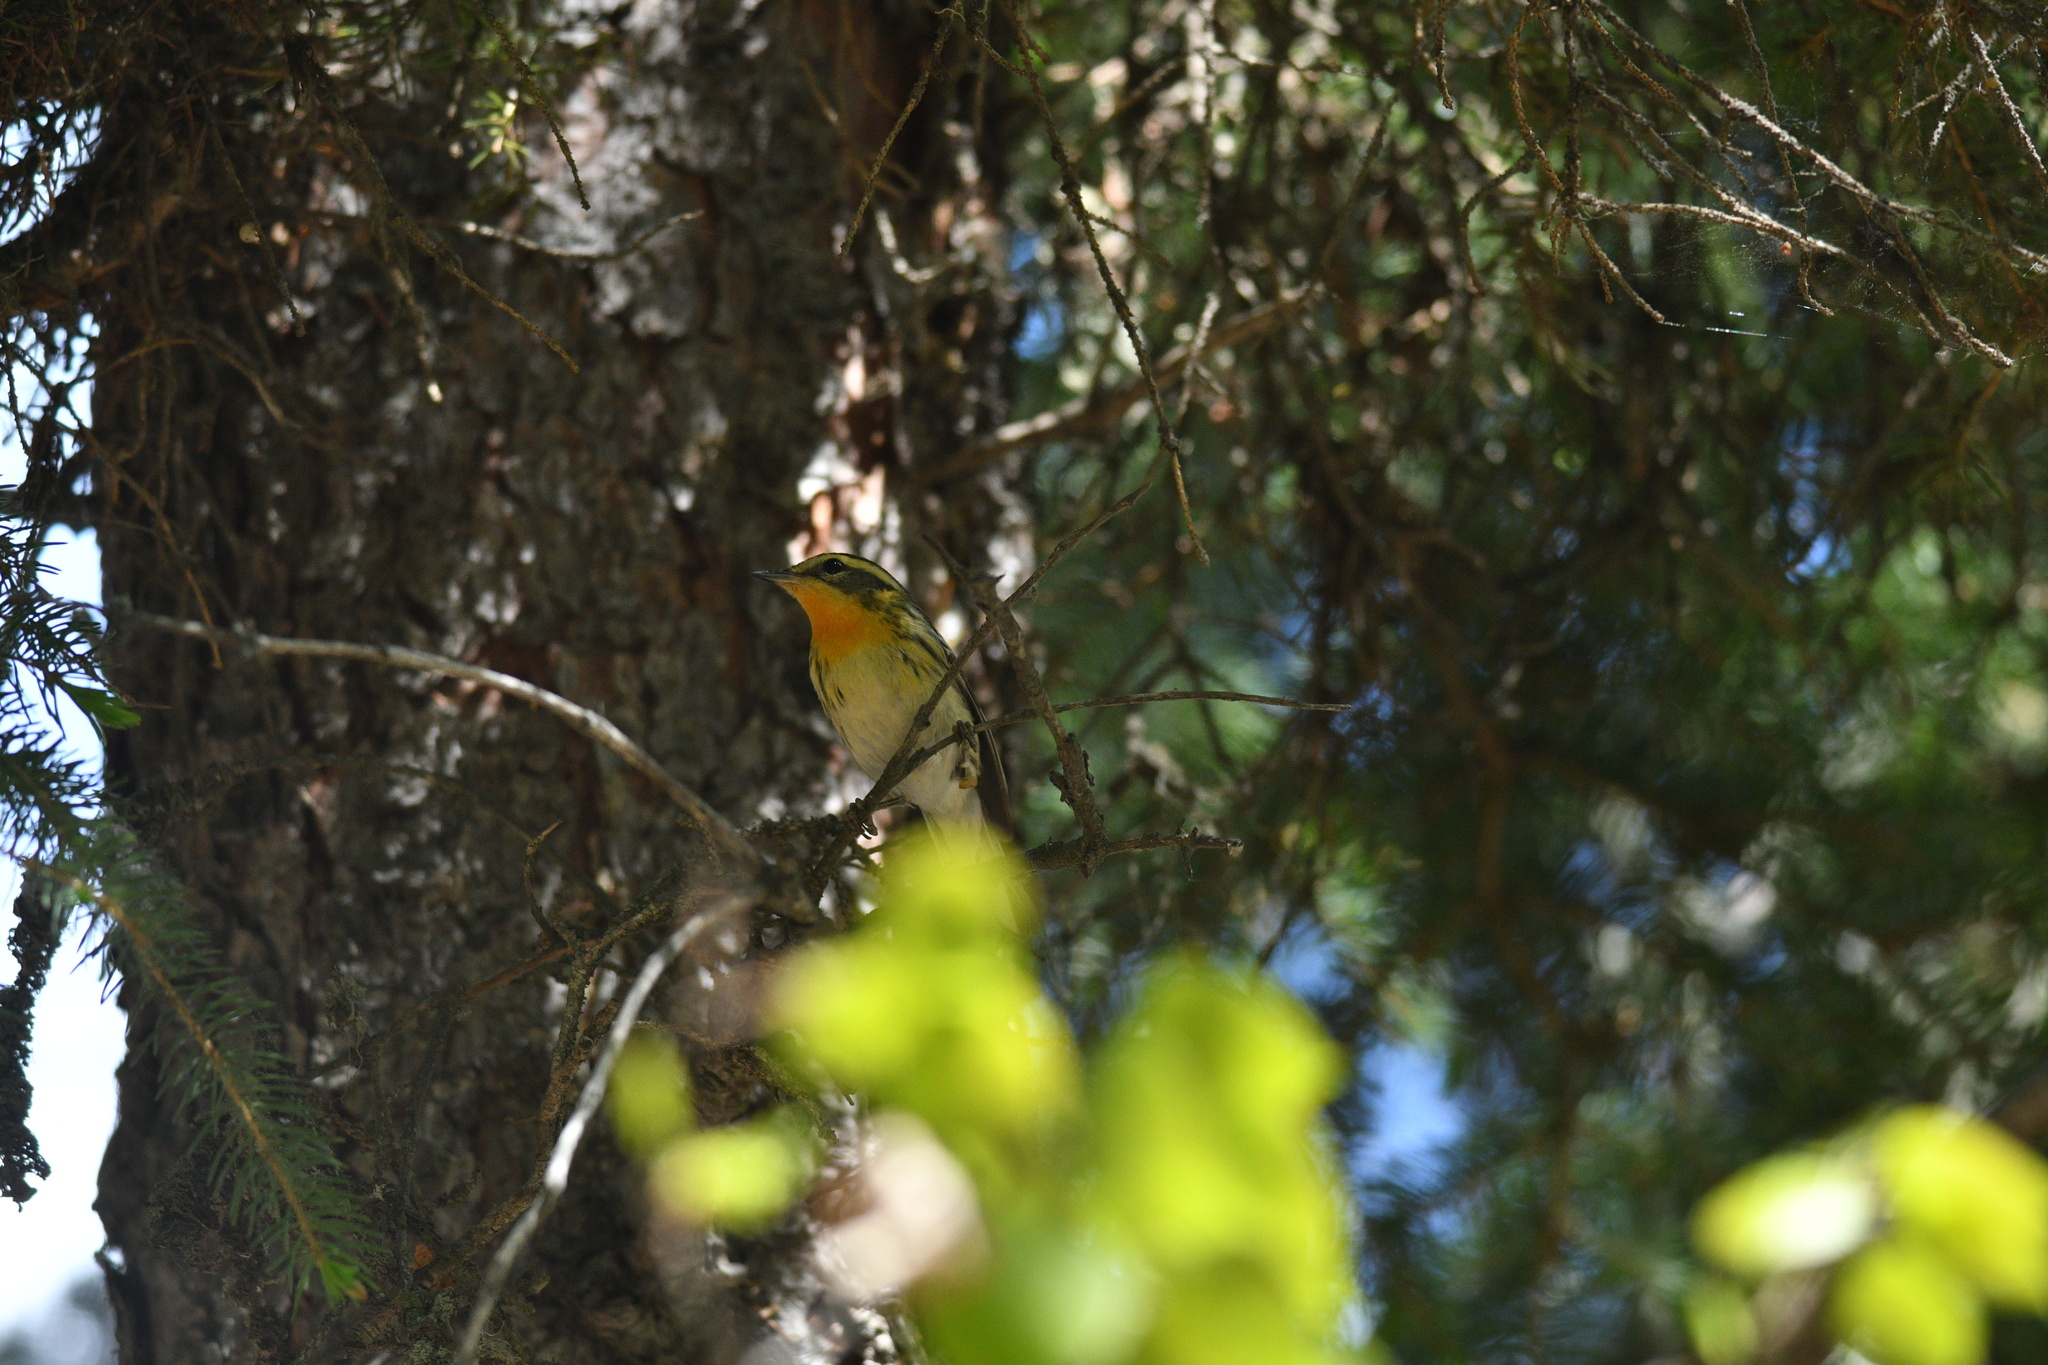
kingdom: Animalia
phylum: Chordata
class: Aves
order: Passeriformes
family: Parulidae
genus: Setophaga
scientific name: Setophaga fusca
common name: Blackburnian warbler
